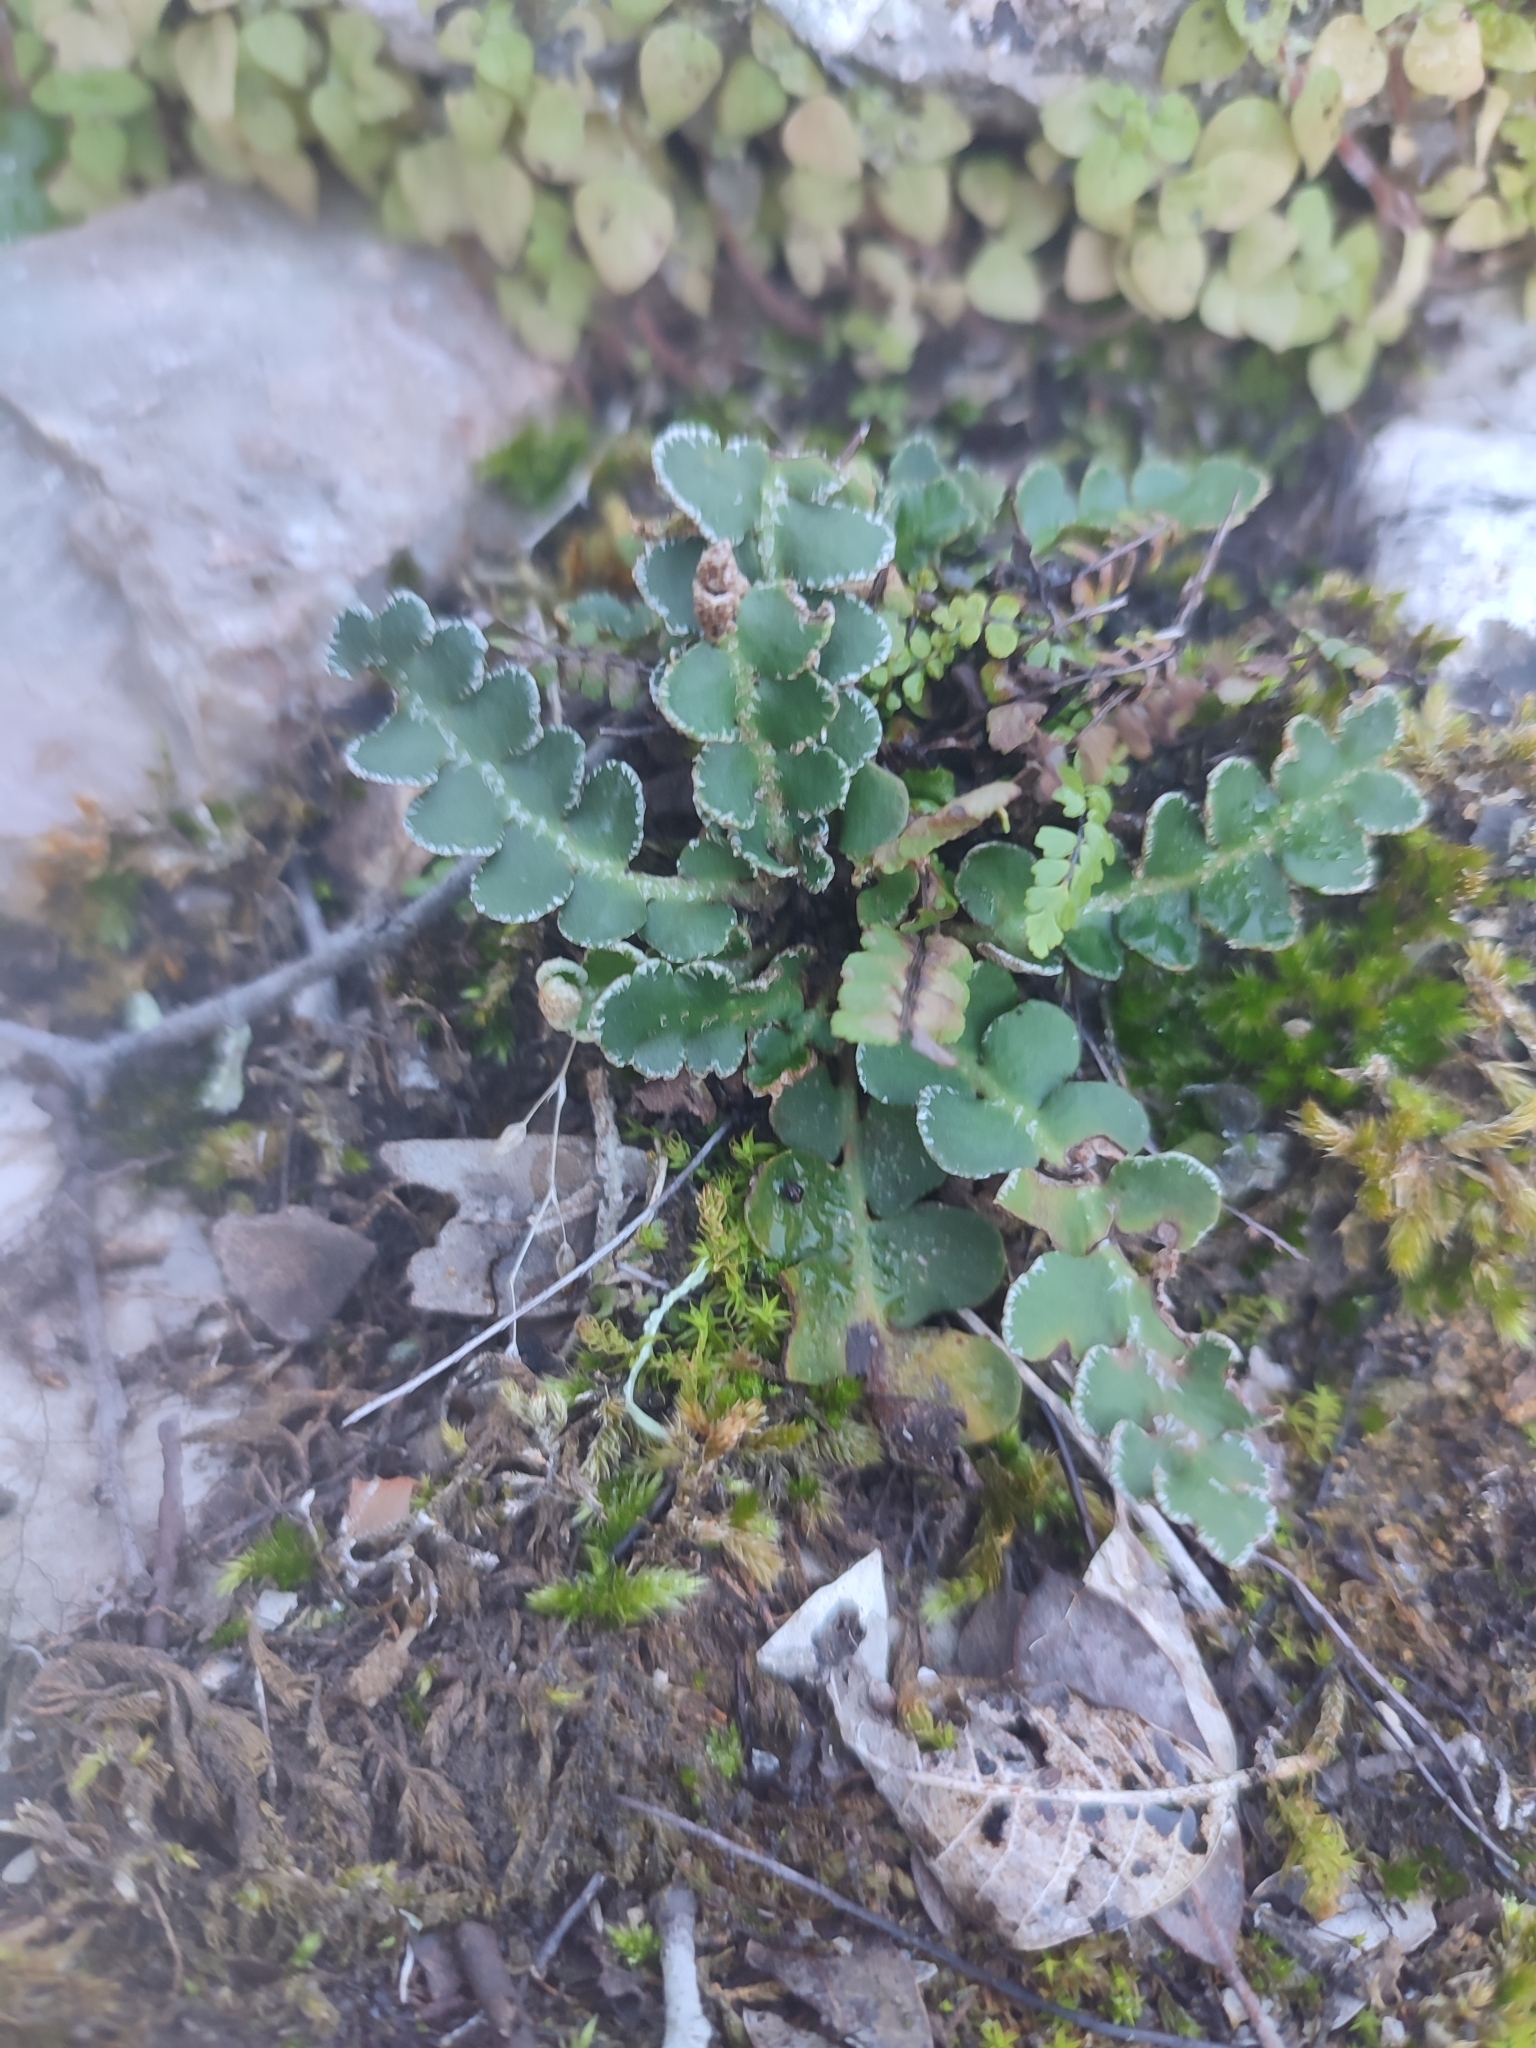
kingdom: Plantae
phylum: Tracheophyta
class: Polypodiopsida
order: Polypodiales
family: Aspleniaceae
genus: Asplenium
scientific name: Asplenium ceterach
